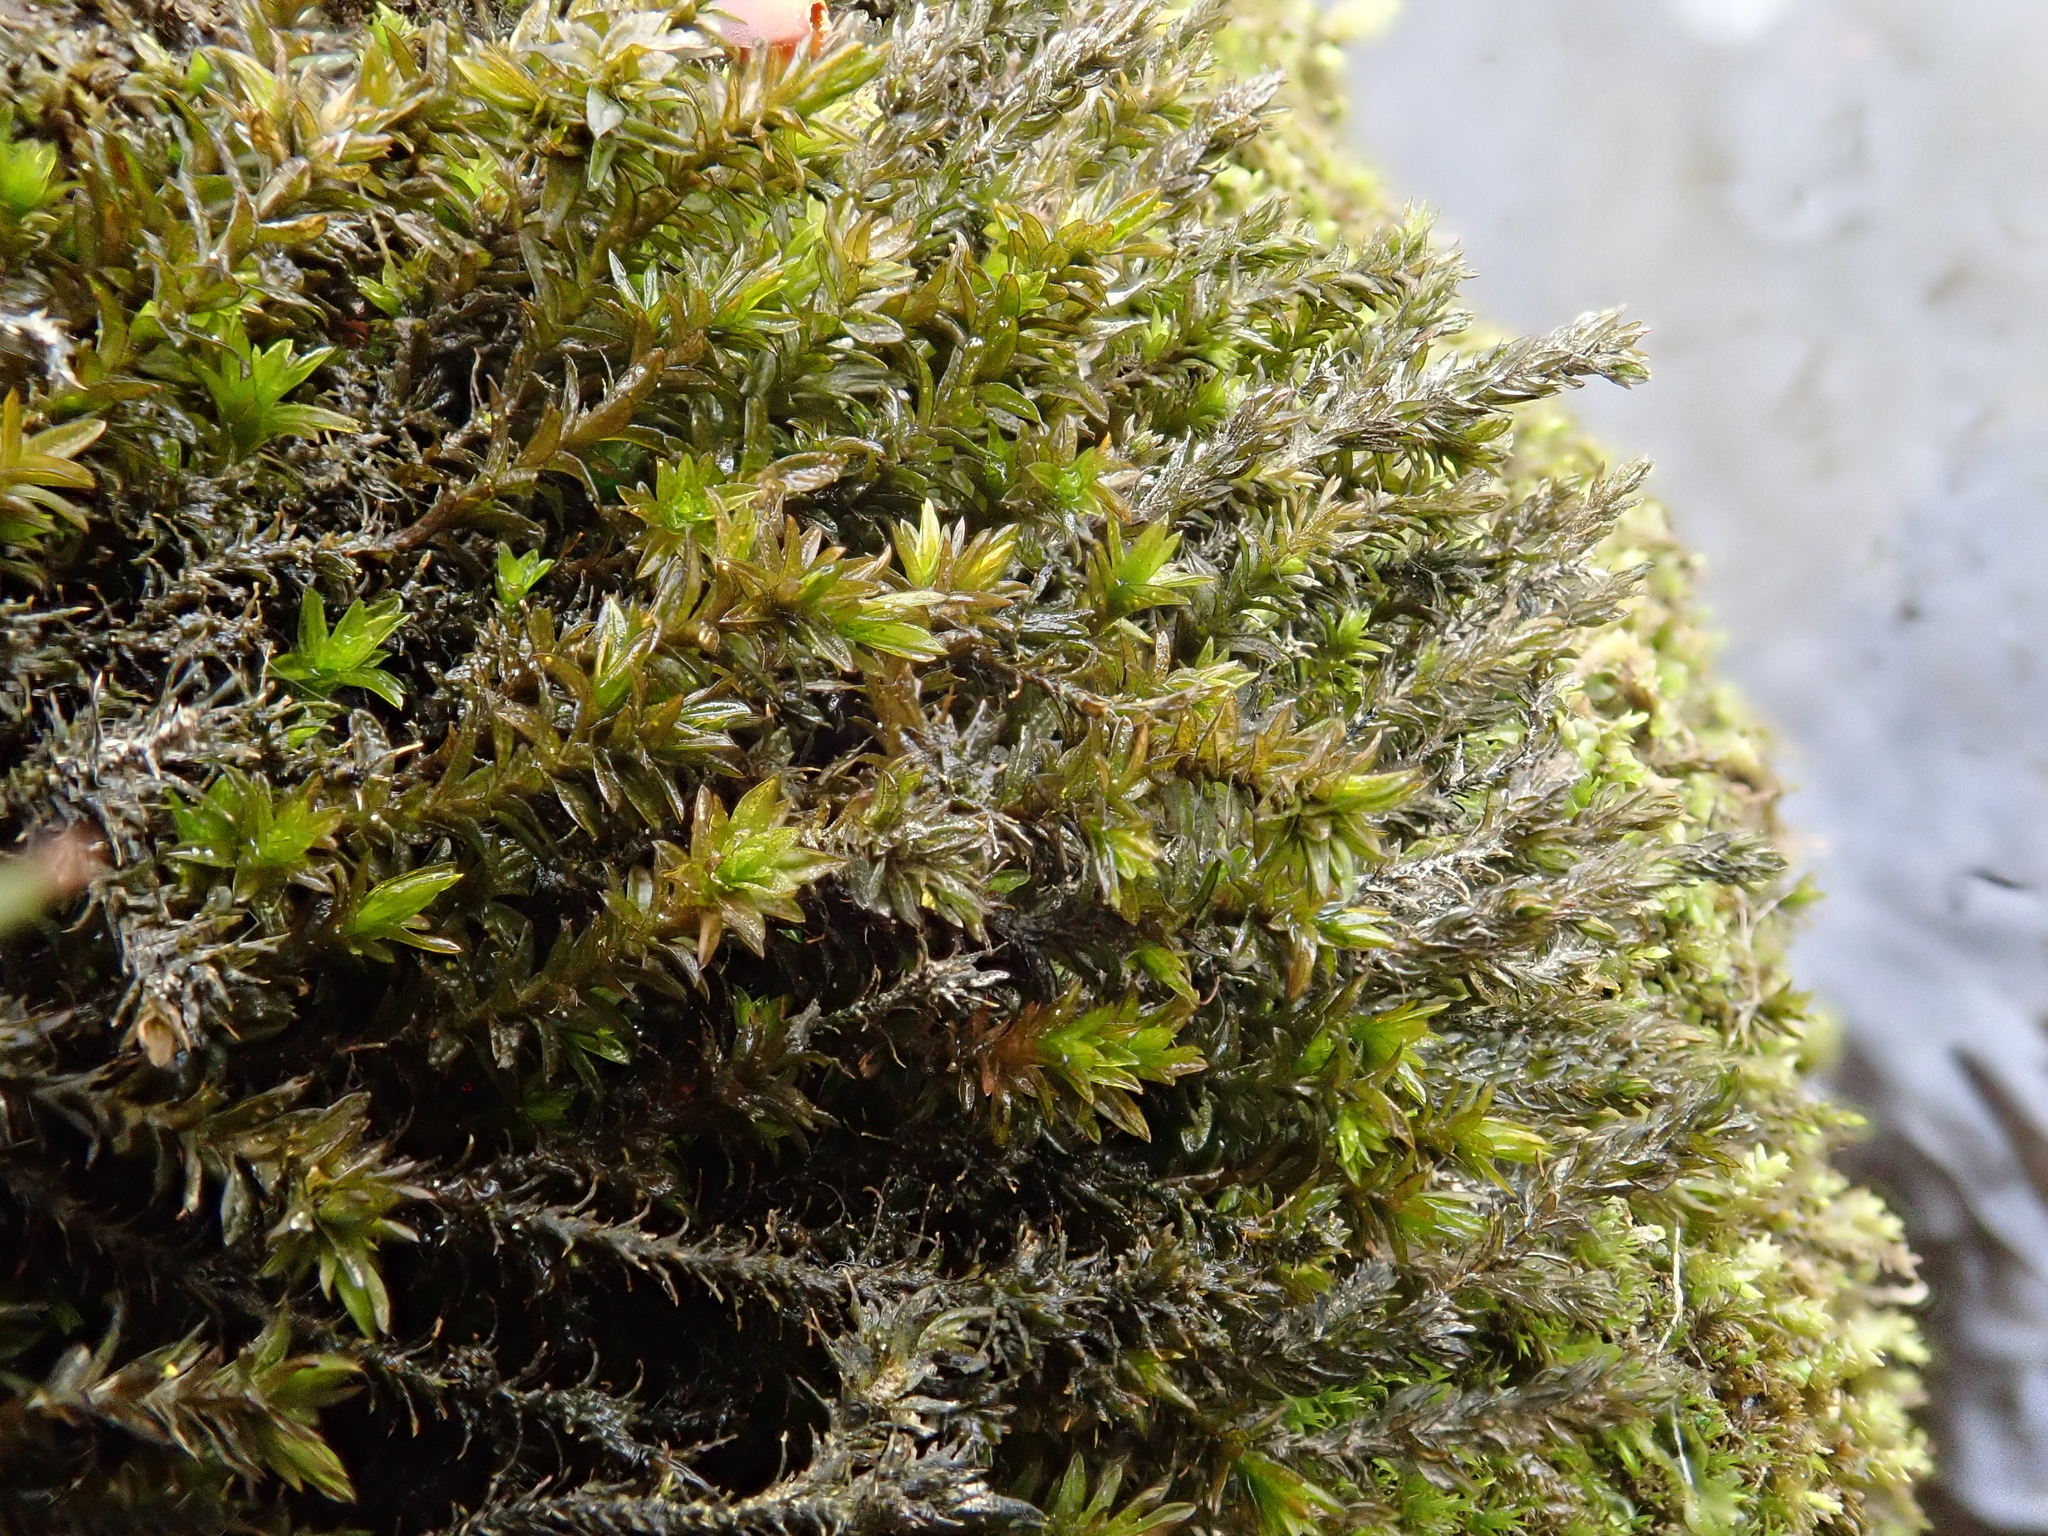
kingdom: Plantae
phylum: Bryophyta
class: Bryopsida
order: Pottiales
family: Pottiaceae
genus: Cinclidotus
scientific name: Cinclidotus riparius
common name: Fountain lattice-moss
